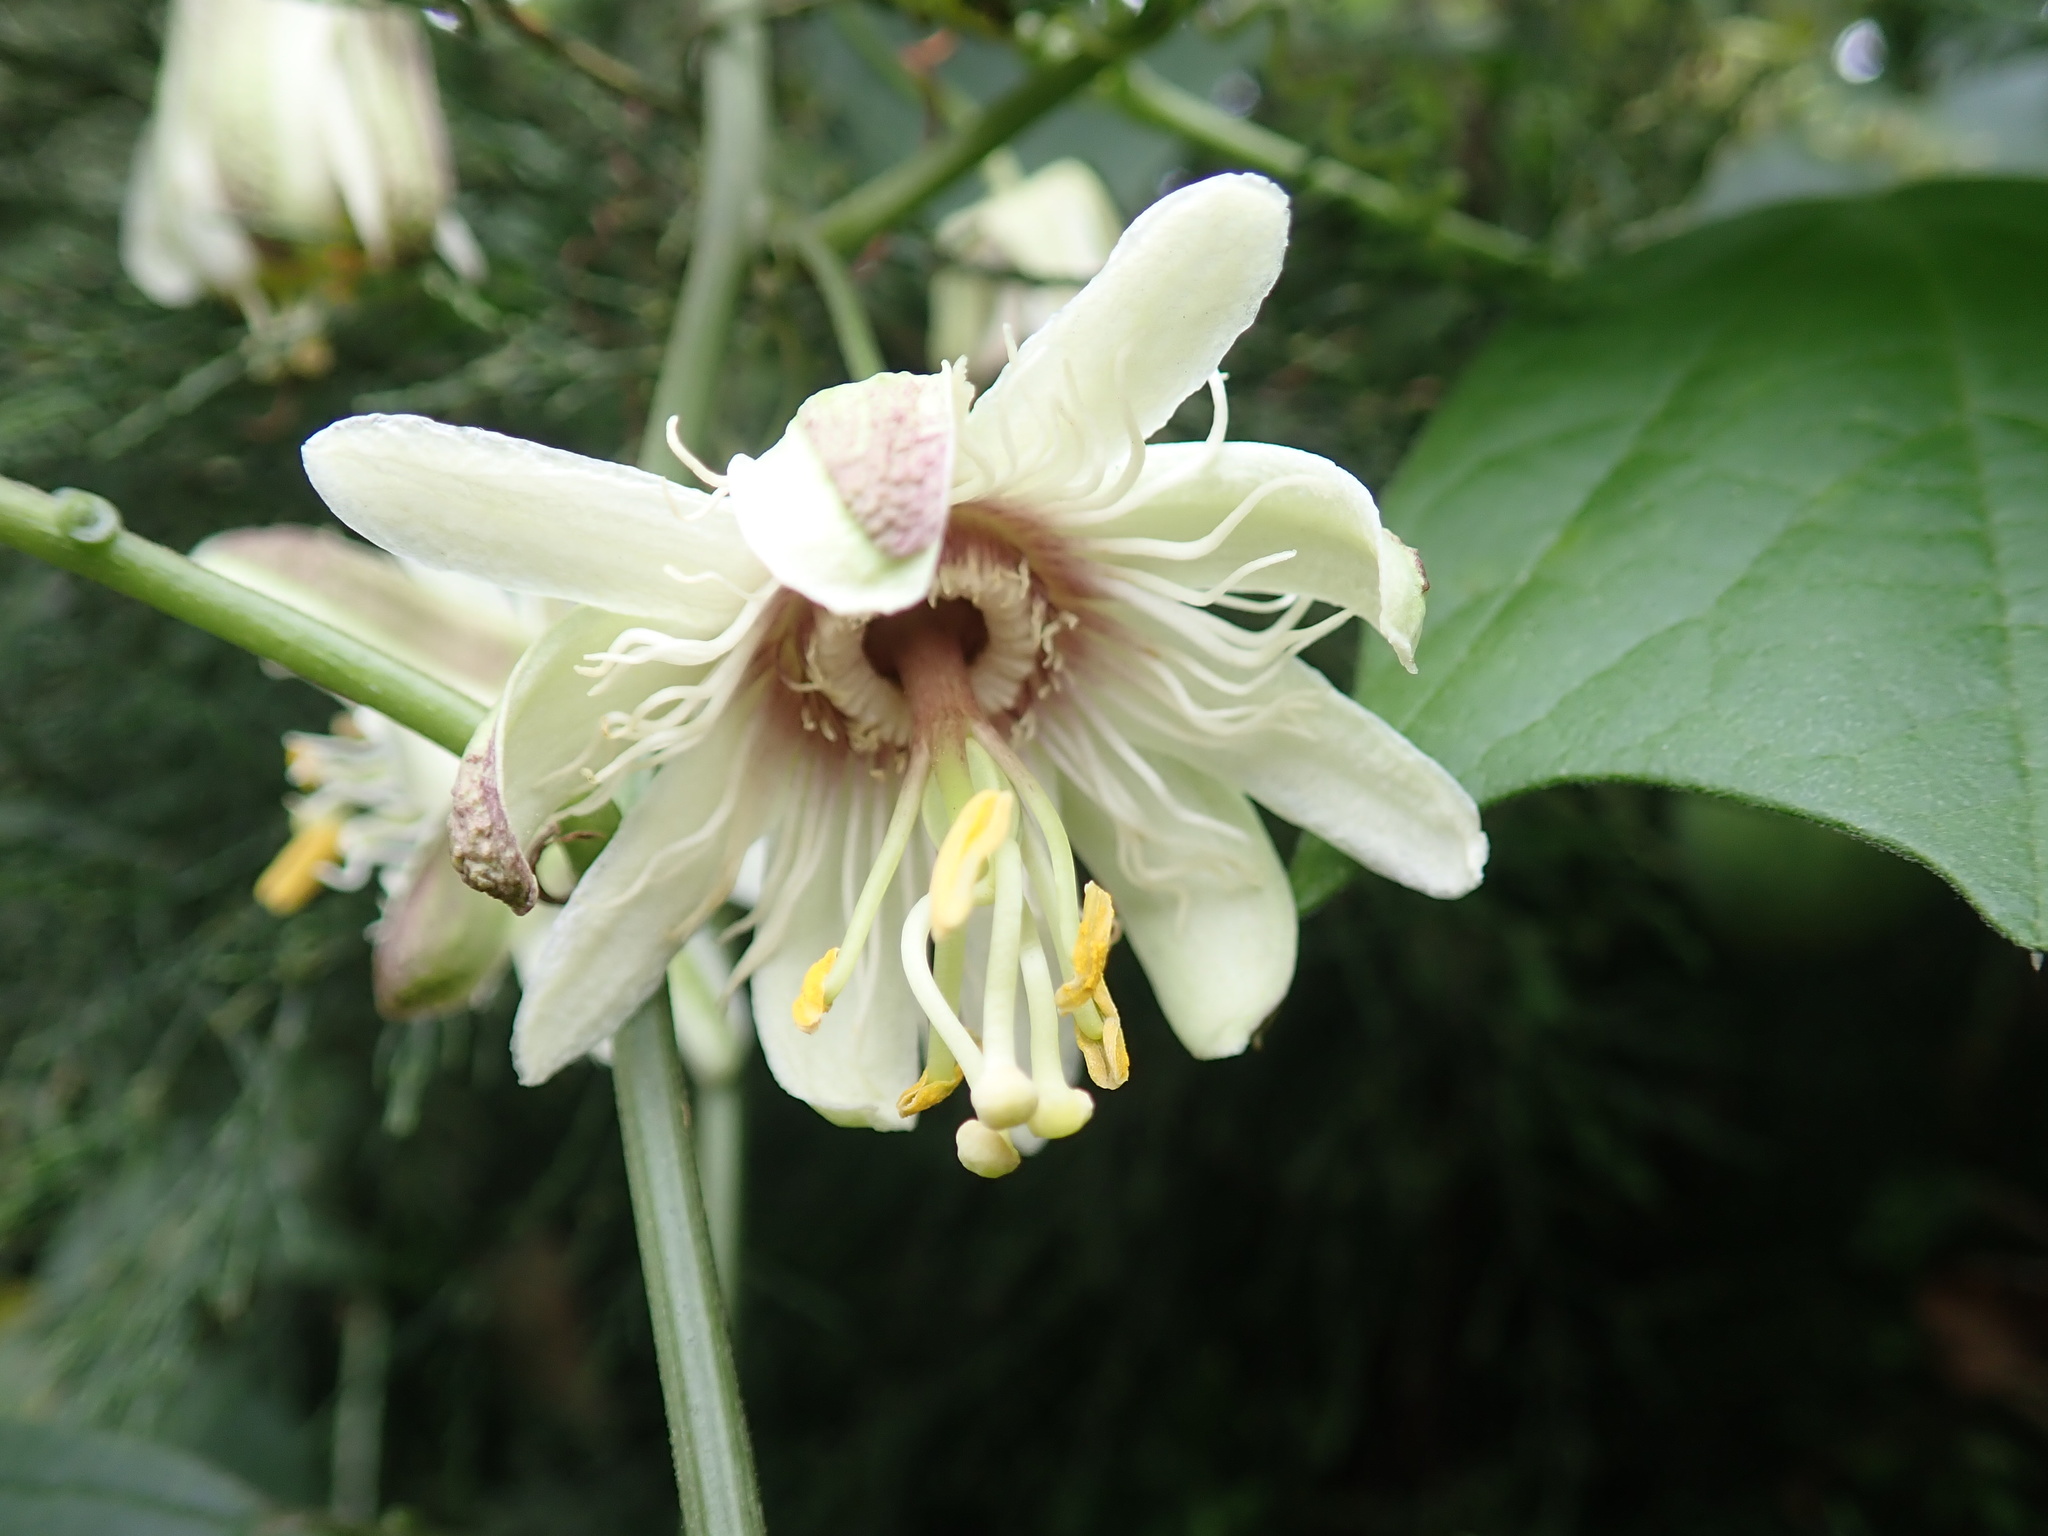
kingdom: Plantae
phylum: Tracheophyta
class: Magnoliopsida
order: Malpighiales
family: Passifloraceae
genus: Passiflora
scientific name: Passiflora leschenaultii
